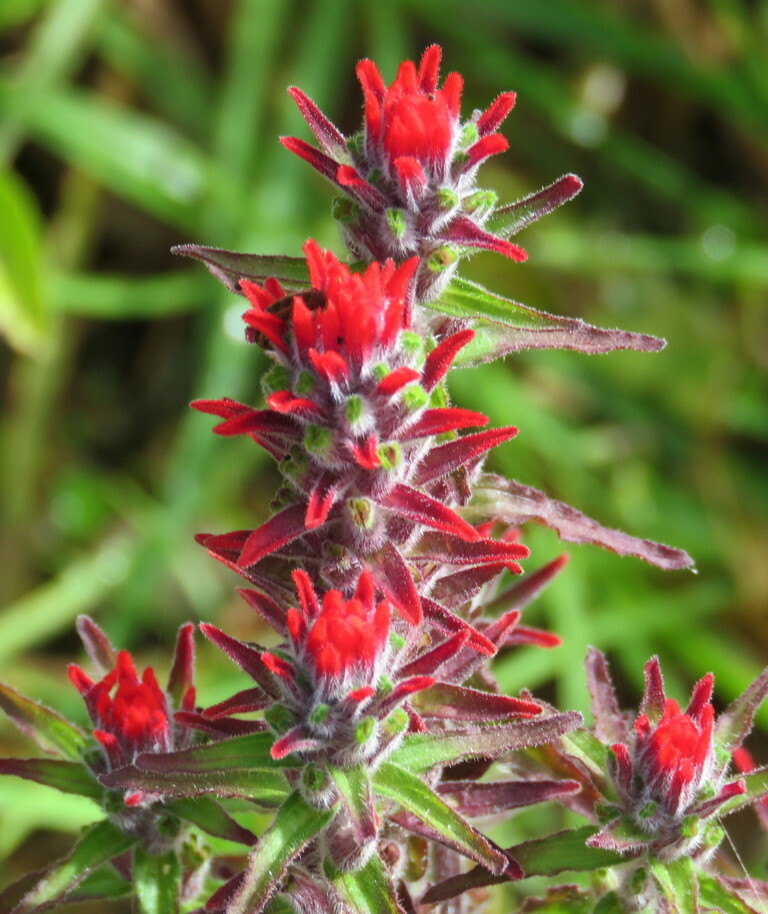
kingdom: Plantae
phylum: Tracheophyta
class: Magnoliopsida
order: Lamiales
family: Orobanchaceae
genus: Castilleja
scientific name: Castilleja arvensis
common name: Indian paintbrush
